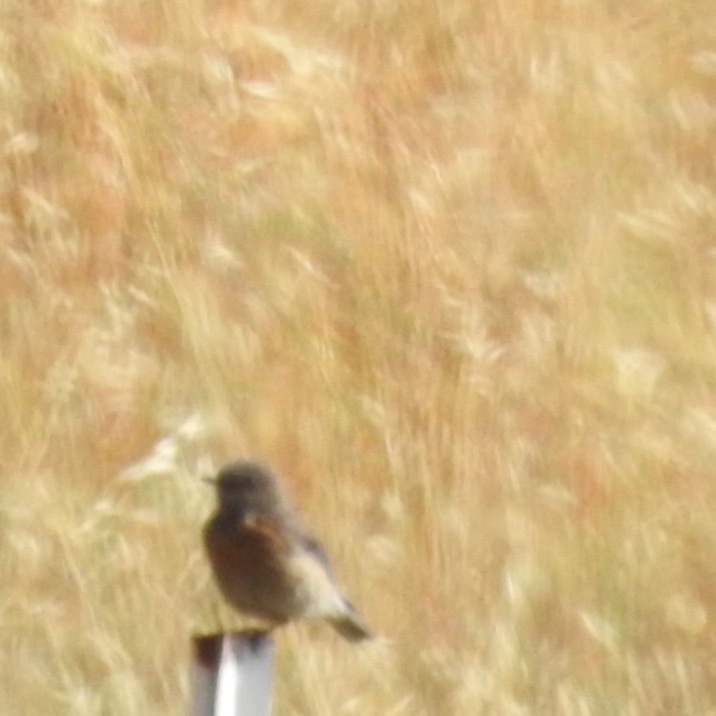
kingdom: Animalia
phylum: Chordata
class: Aves
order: Passeriformes
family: Turdidae
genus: Sialia
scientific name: Sialia mexicana
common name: Western bluebird
